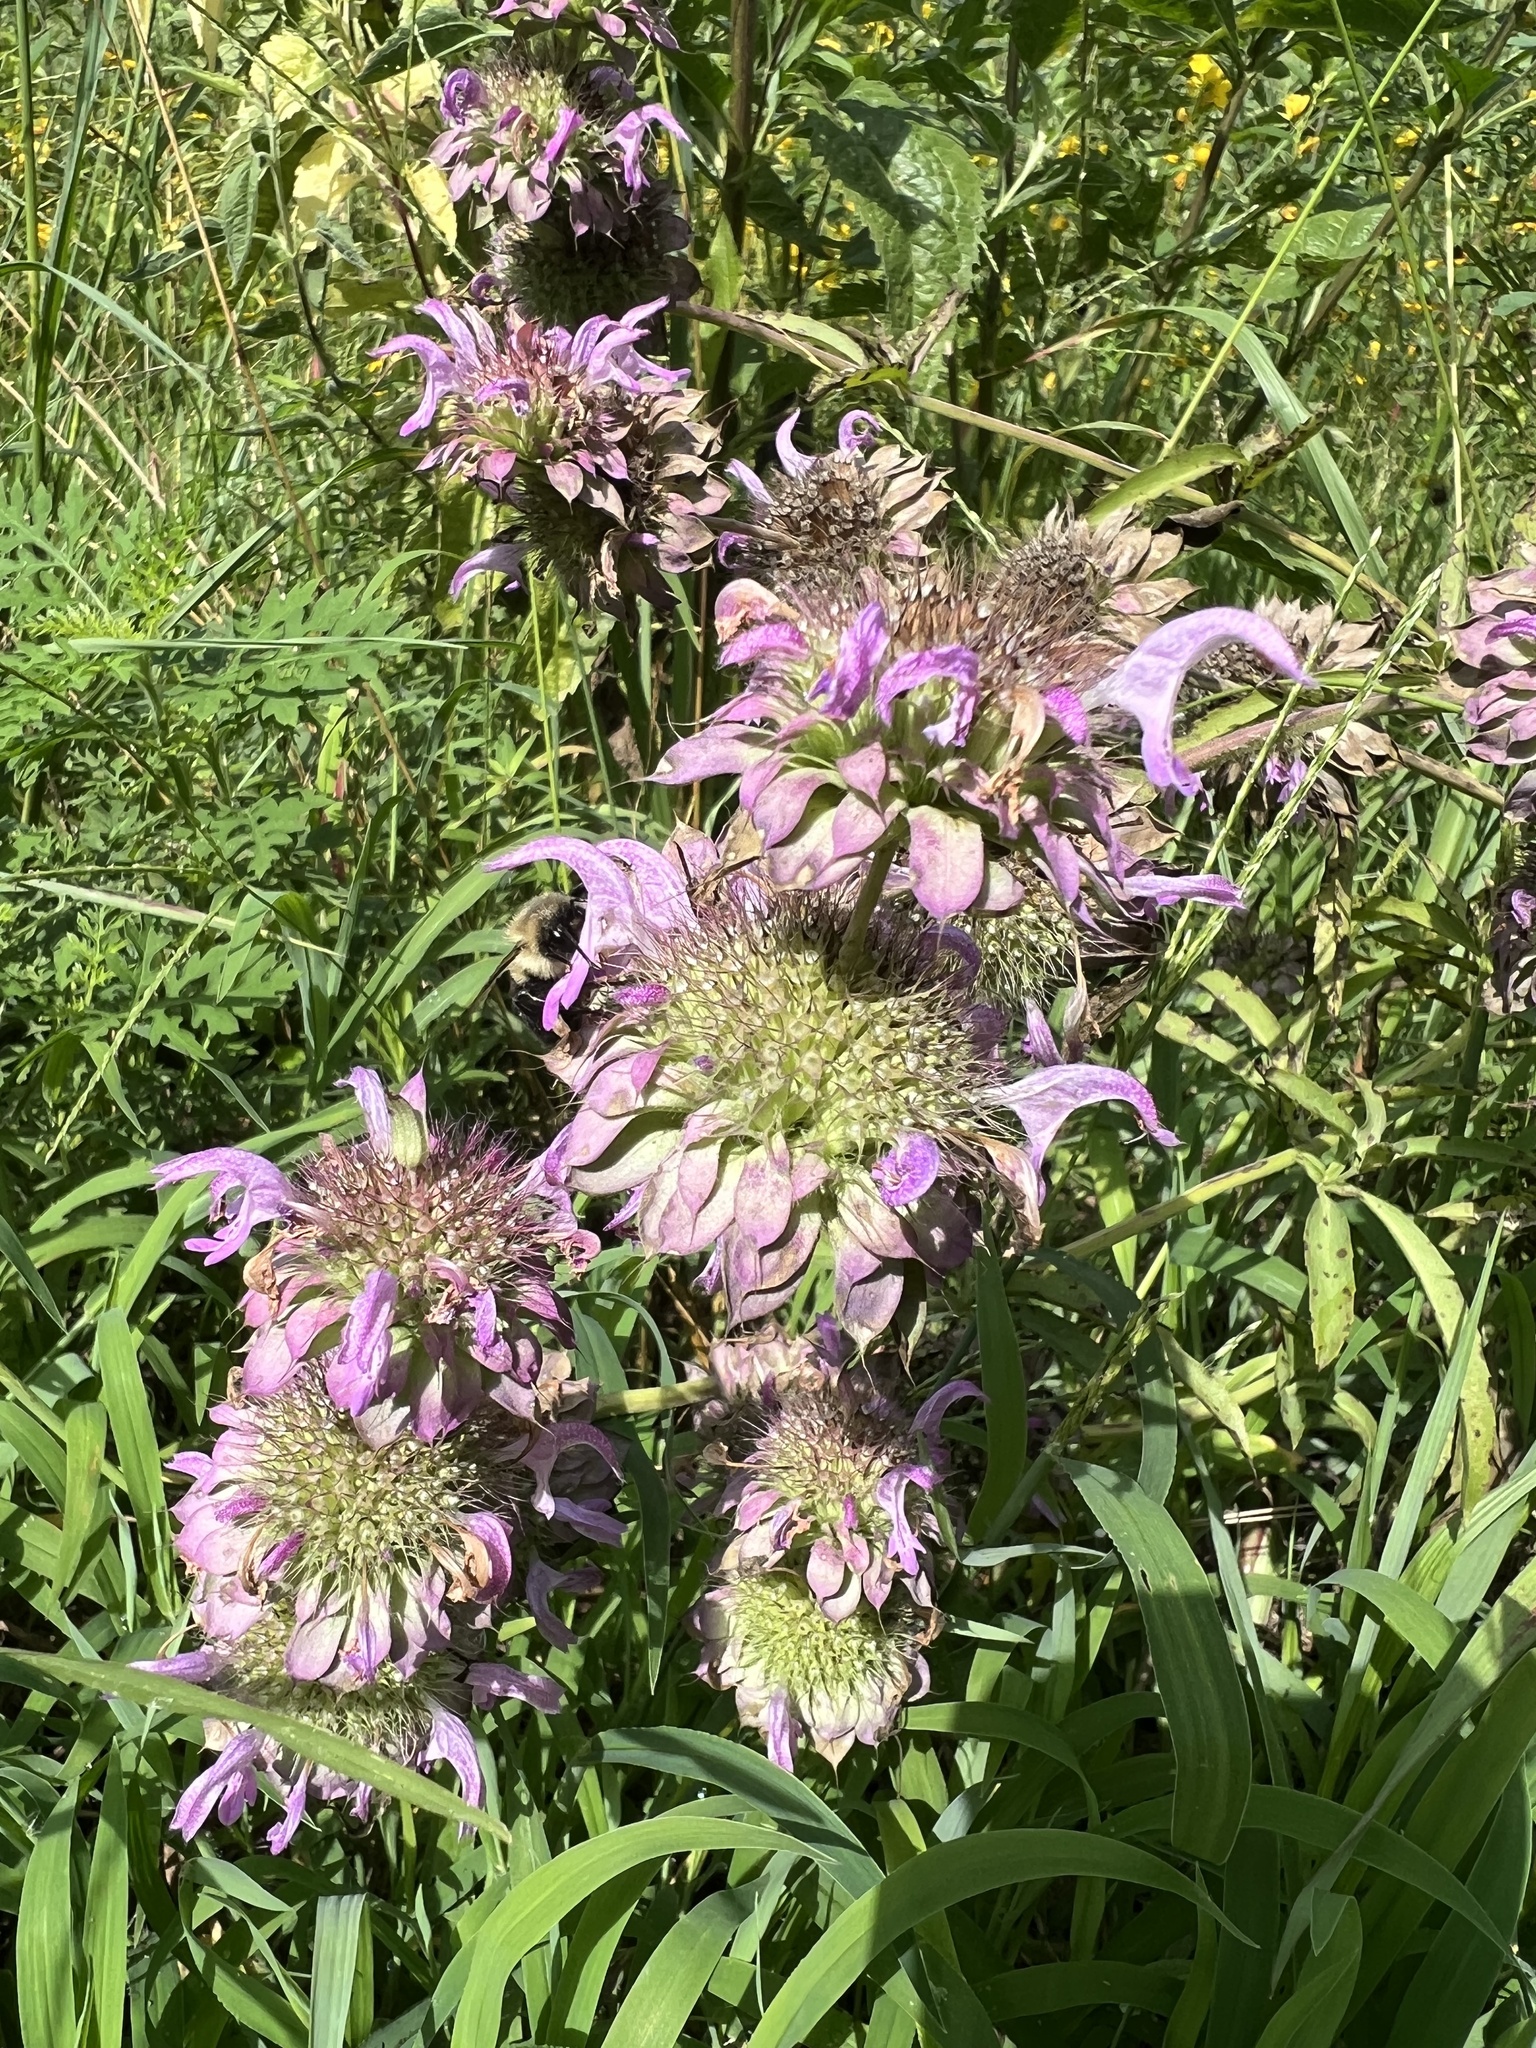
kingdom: Plantae
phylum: Tracheophyta
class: Magnoliopsida
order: Lamiales
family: Lamiaceae
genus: Monarda
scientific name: Monarda citriodora
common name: Lemon beebalm
